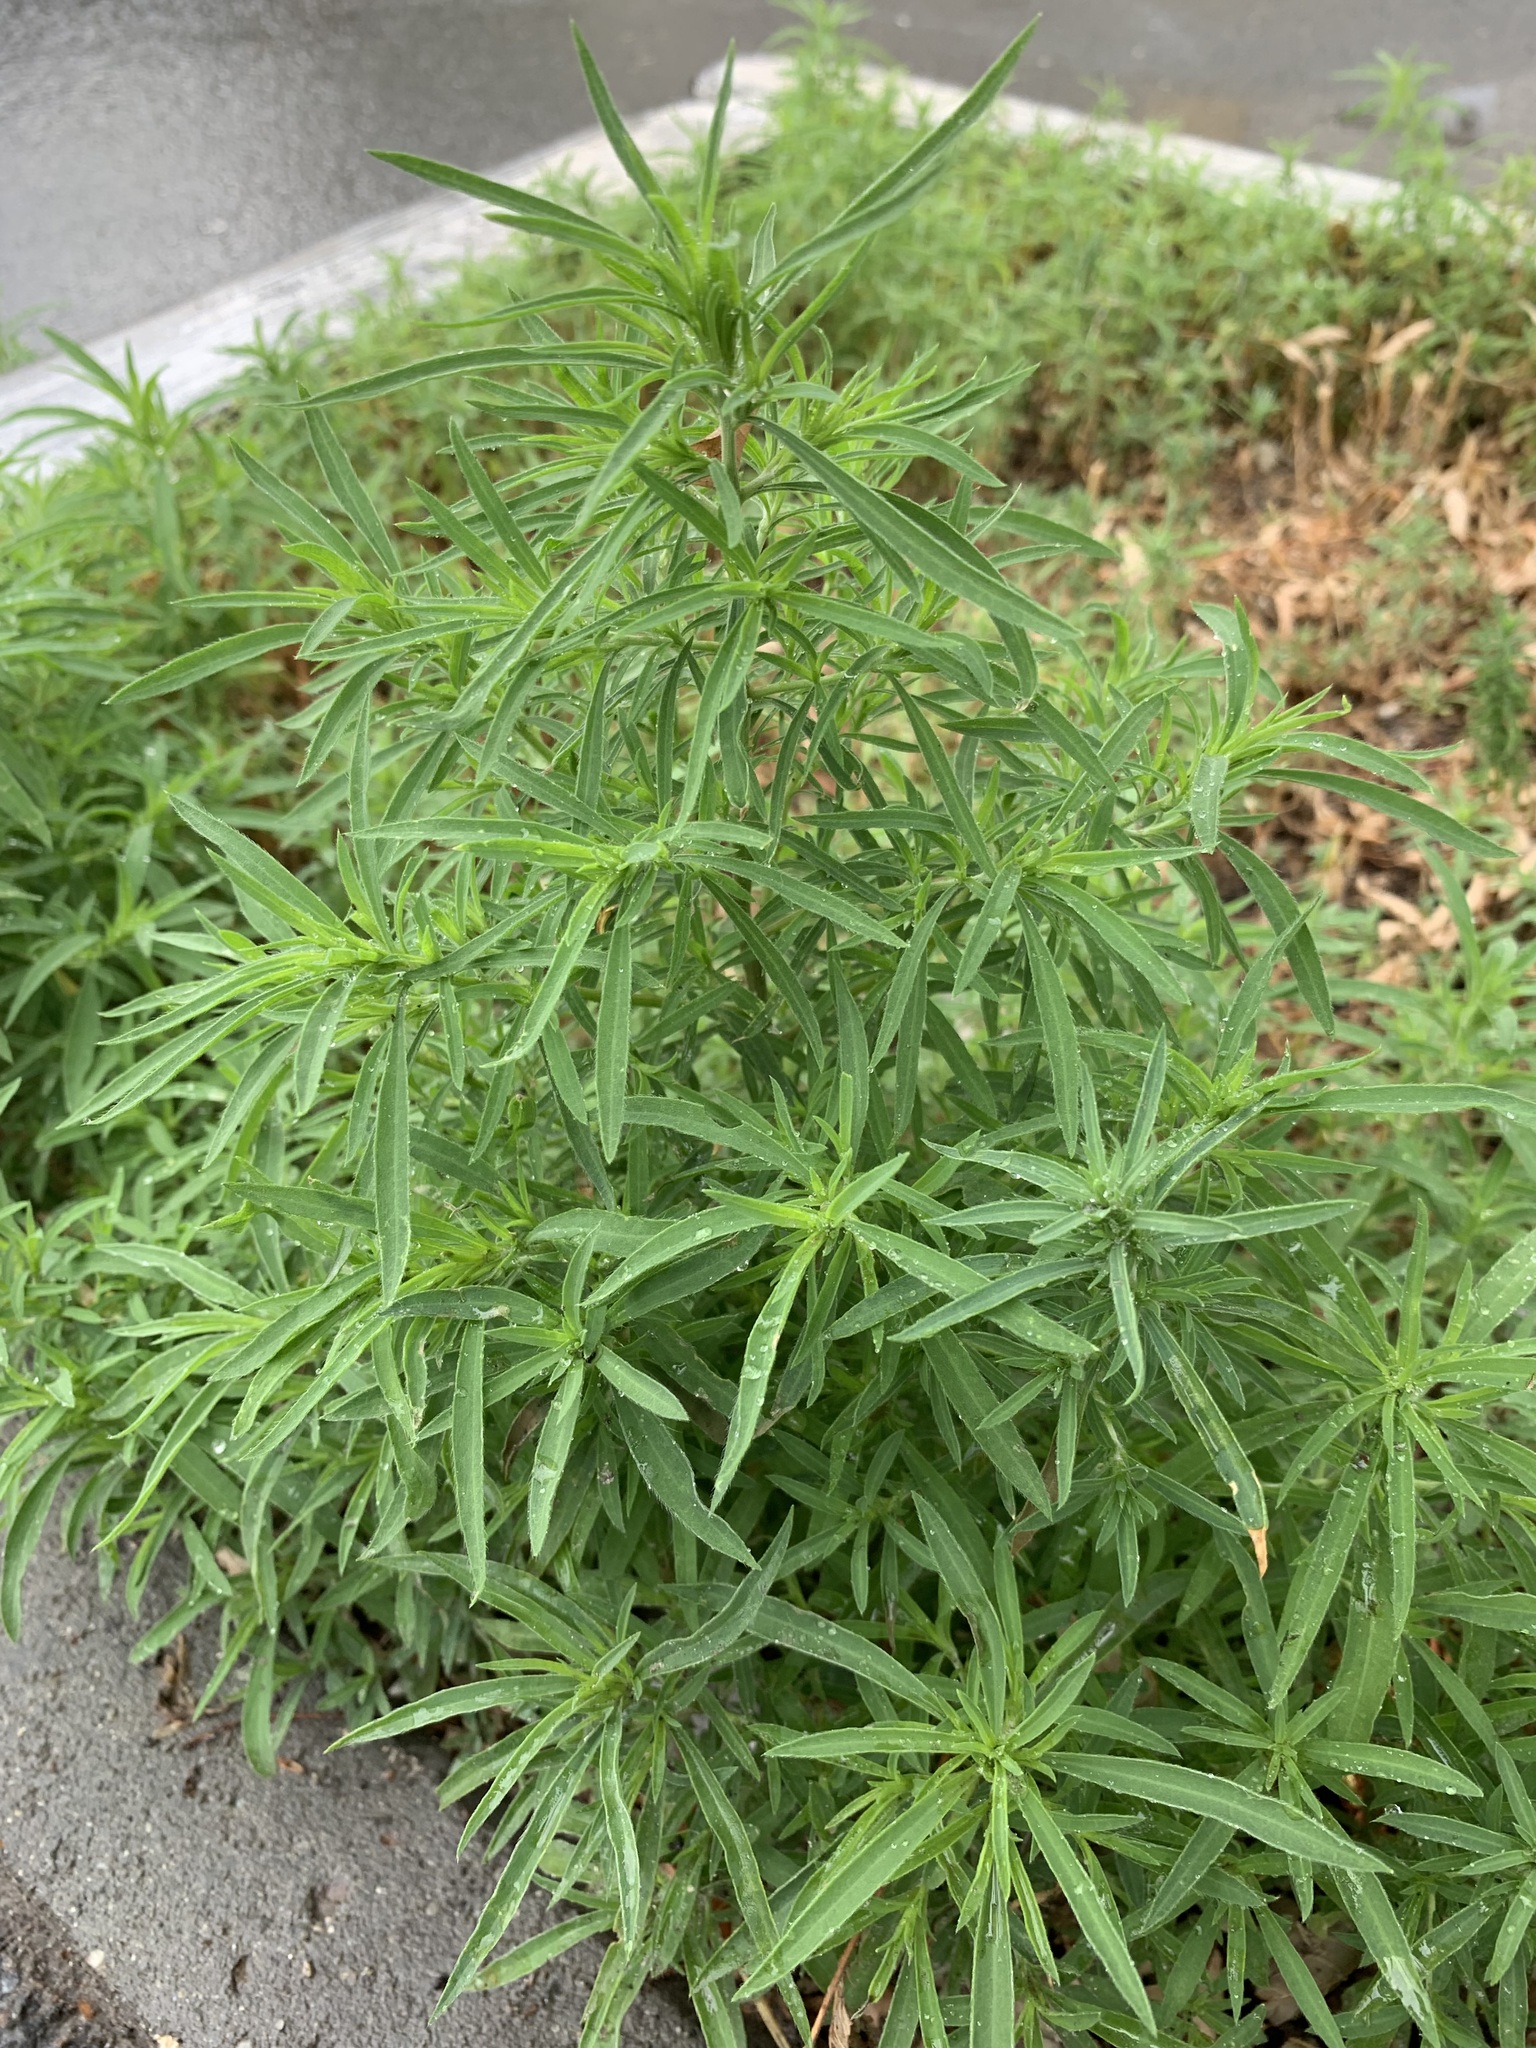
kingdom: Plantae
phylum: Tracheophyta
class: Magnoliopsida
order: Caryophyllales
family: Amaranthaceae
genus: Bassia
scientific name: Bassia scoparia
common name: Belvedere
